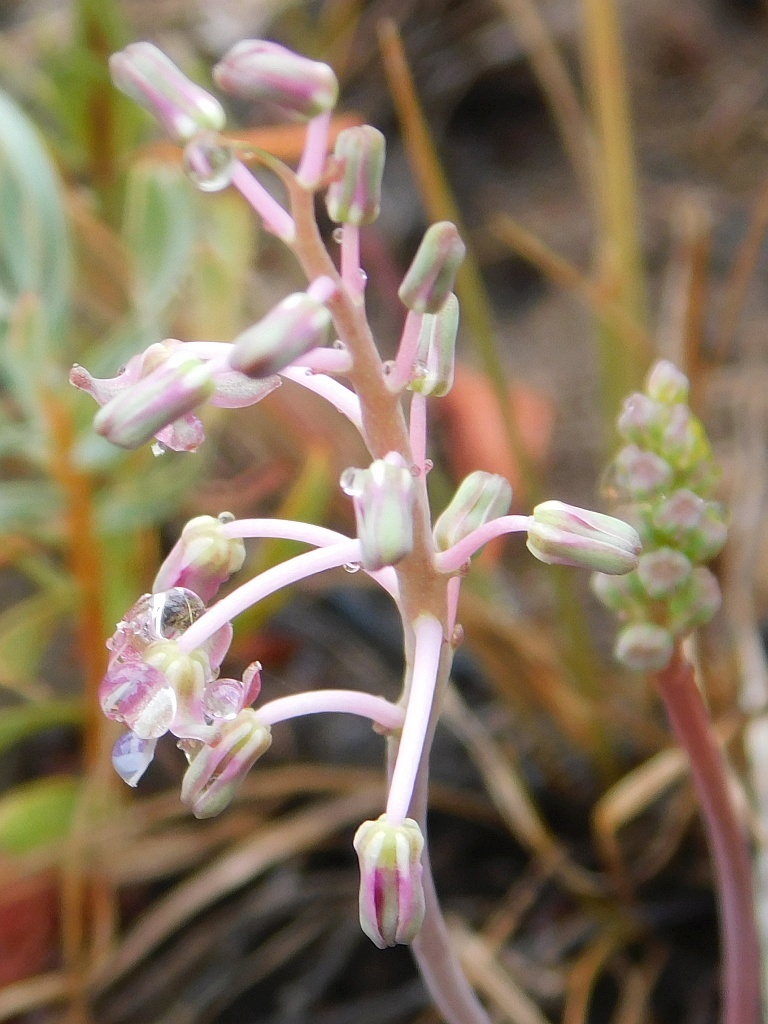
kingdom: Plantae
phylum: Tracheophyta
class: Liliopsida
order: Asparagales
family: Asparagaceae
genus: Ledebouria
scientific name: Ledebouria ovalifolia
